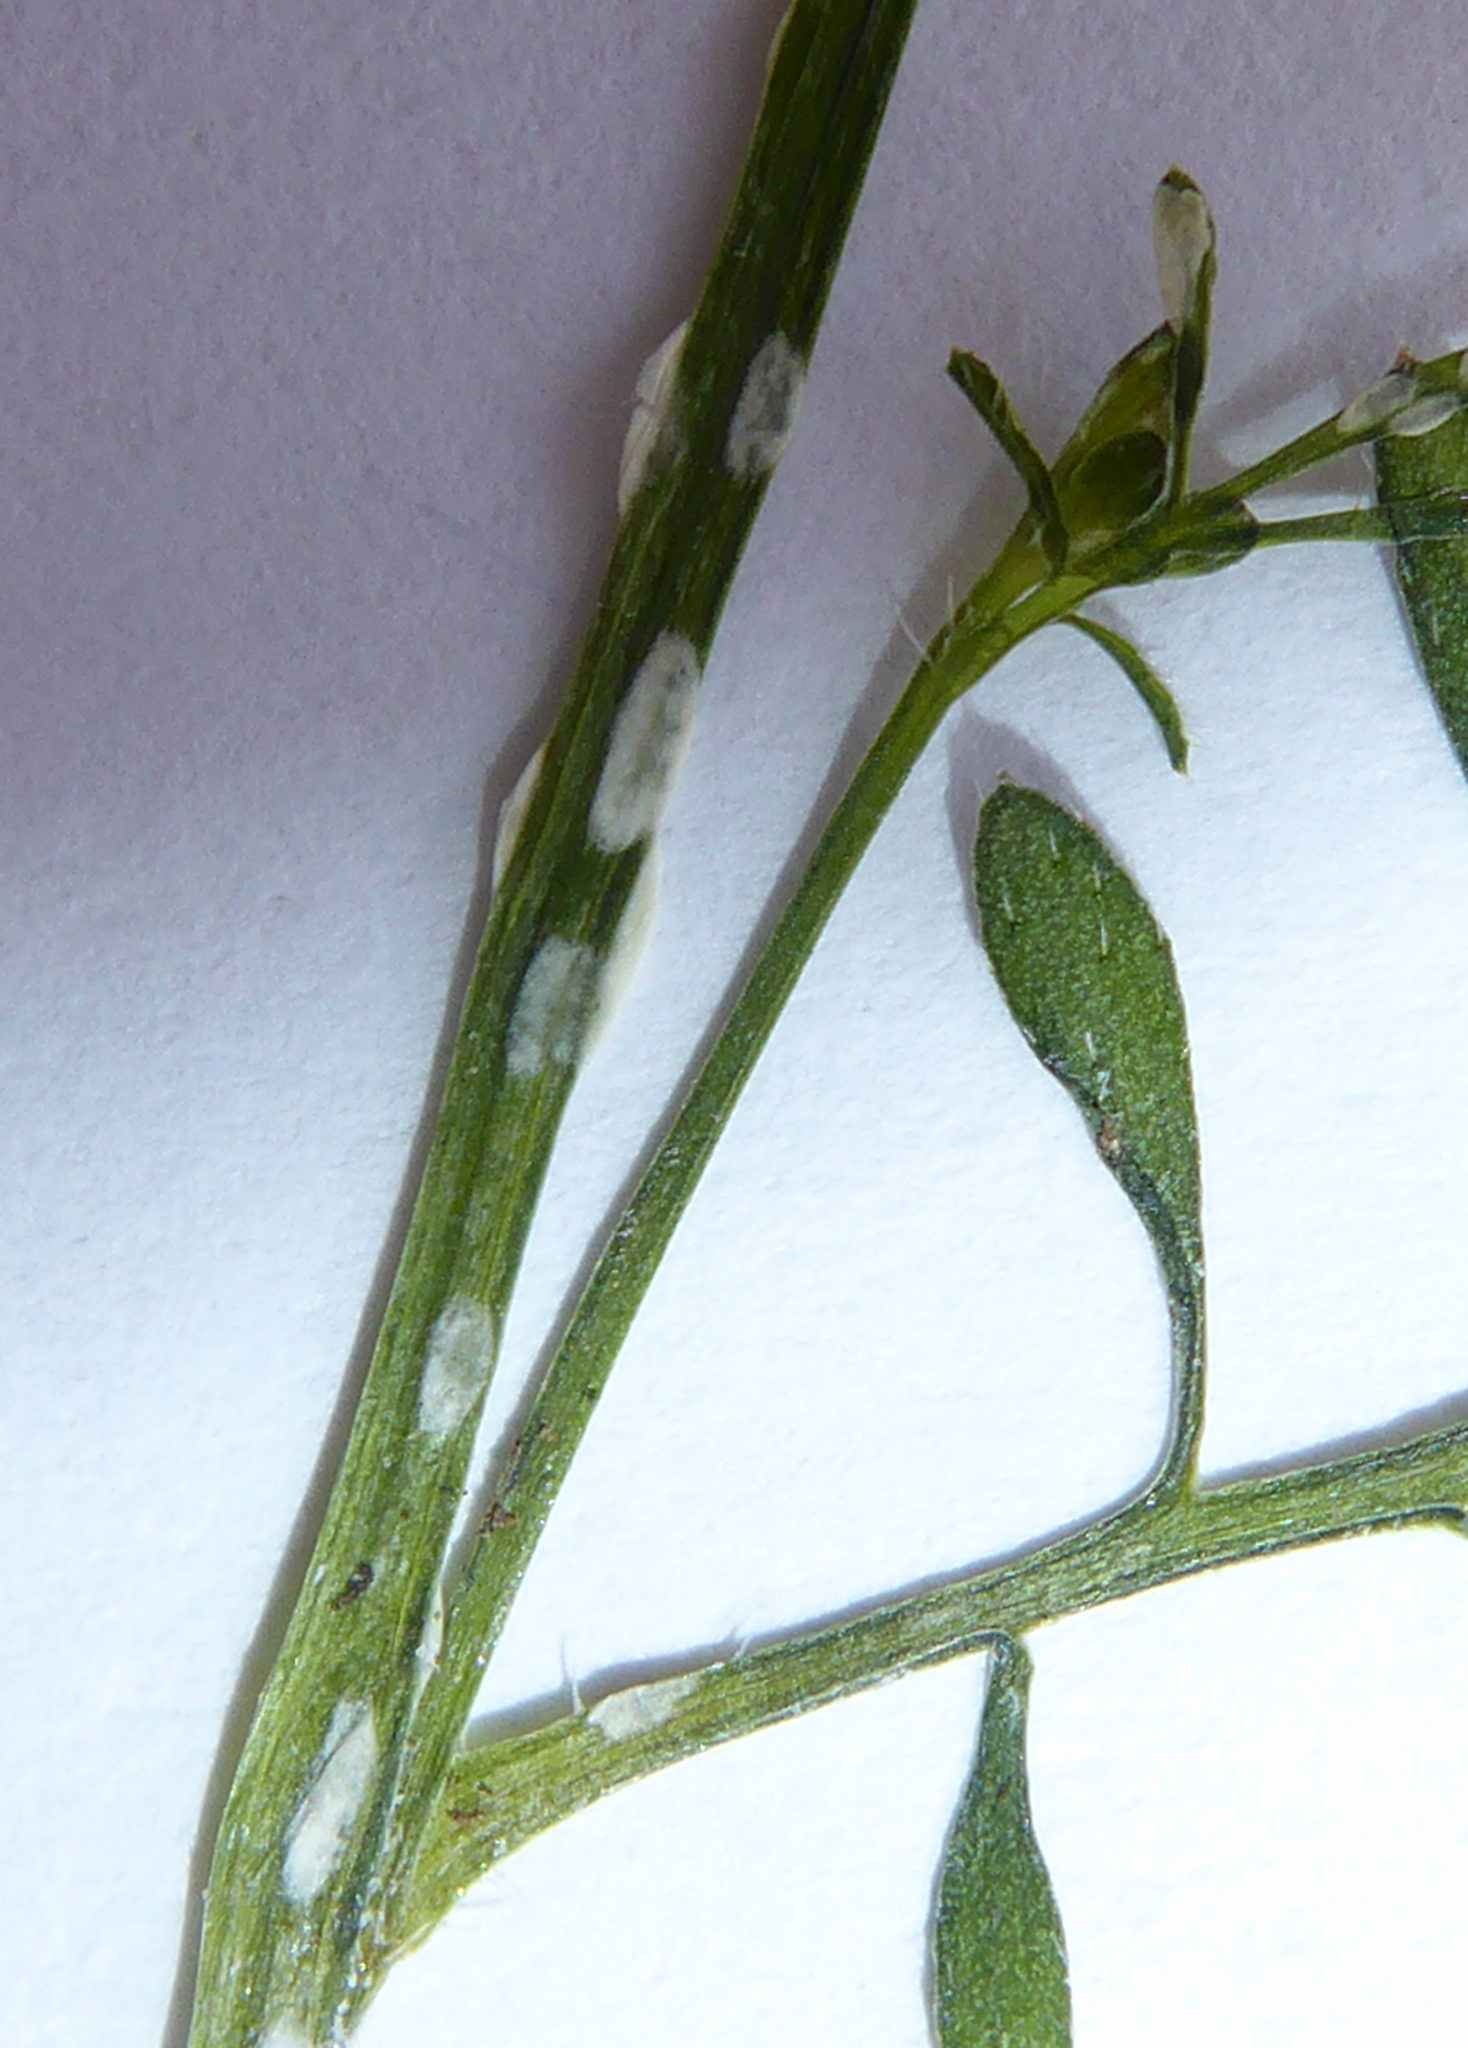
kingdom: Chromista
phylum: Oomycota
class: Peronosporea
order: Albuginales
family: Albuginaceae
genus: Albugo
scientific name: Albugo candida
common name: Crucifer white blister
